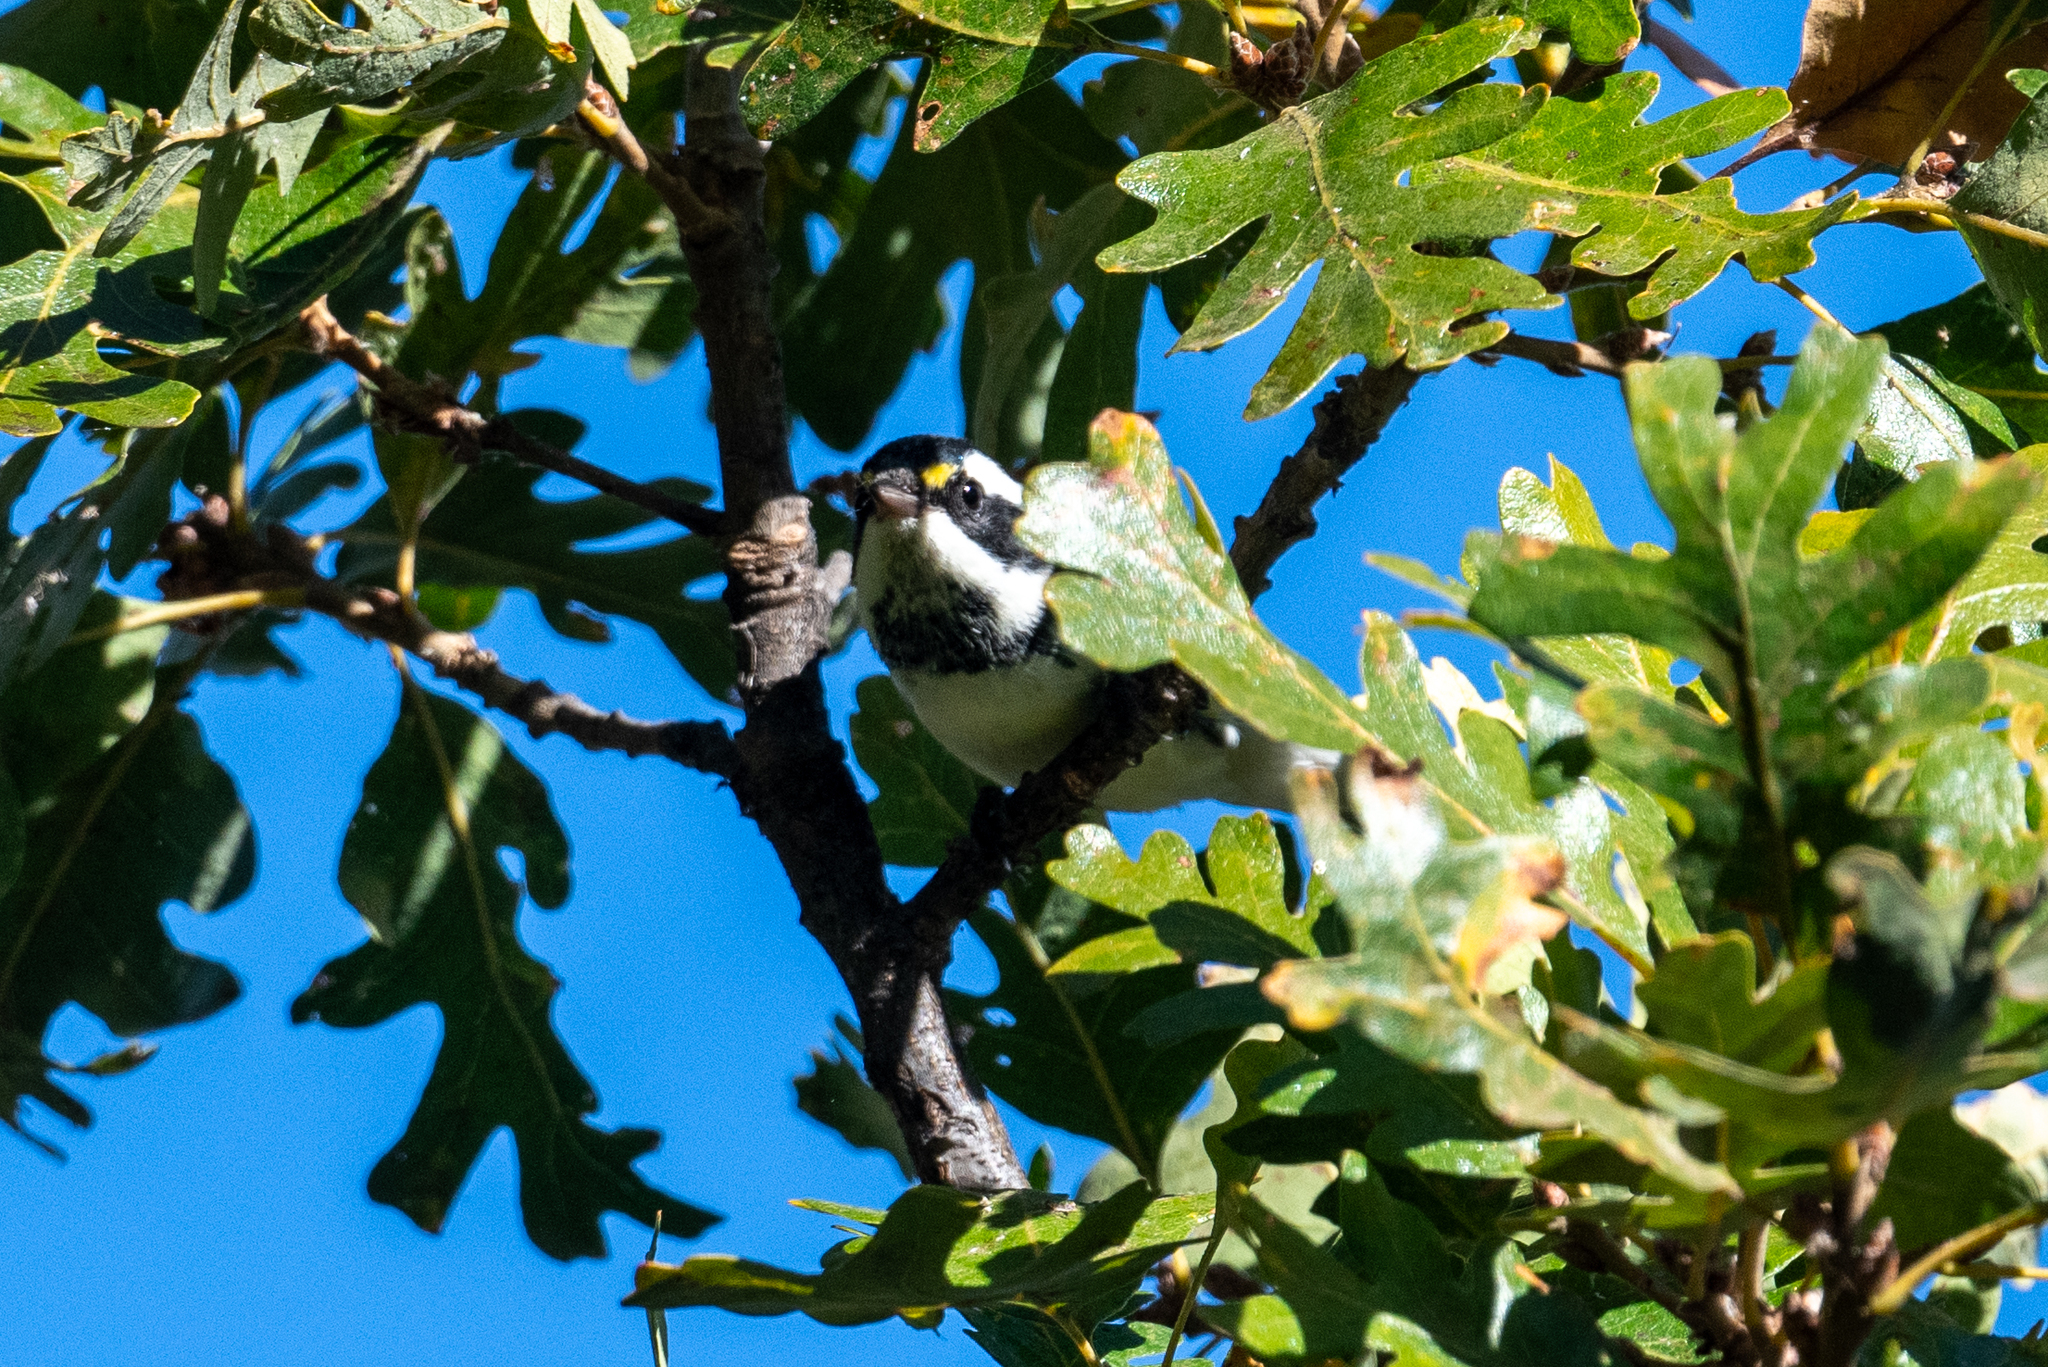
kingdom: Animalia
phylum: Chordata
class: Aves
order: Passeriformes
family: Parulidae
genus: Setophaga
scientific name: Setophaga nigrescens
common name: Black-throated gray warbler
